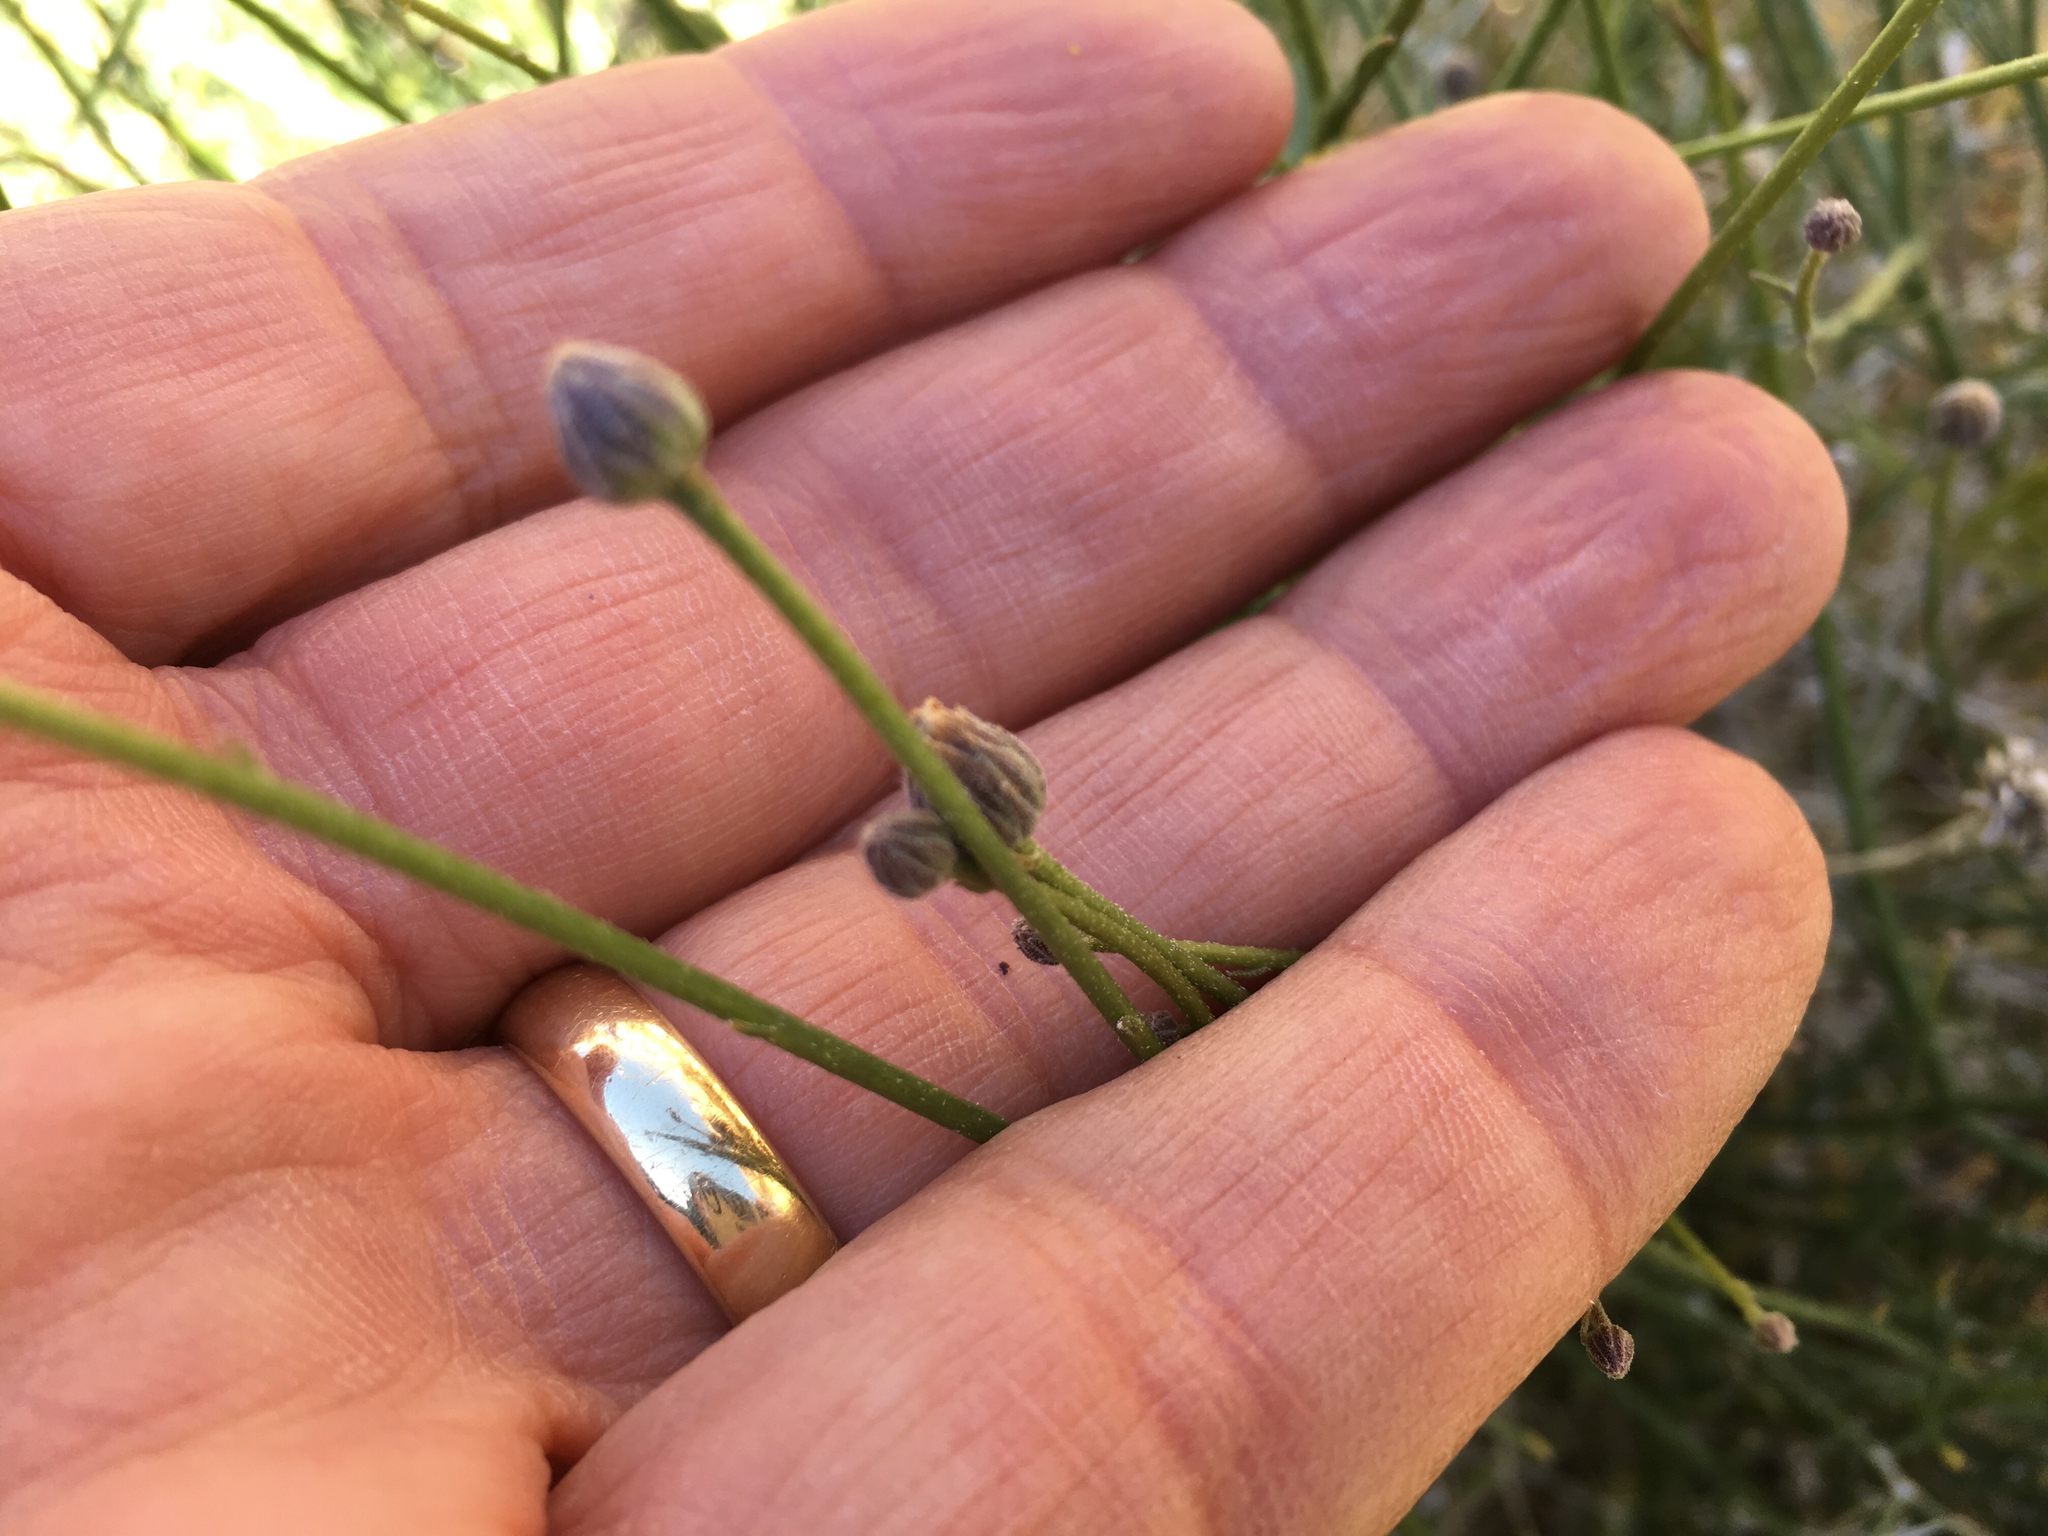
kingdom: Plantae
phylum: Tracheophyta
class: Magnoliopsida
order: Asterales
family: Asteraceae
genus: Bebbia
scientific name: Bebbia juncea
